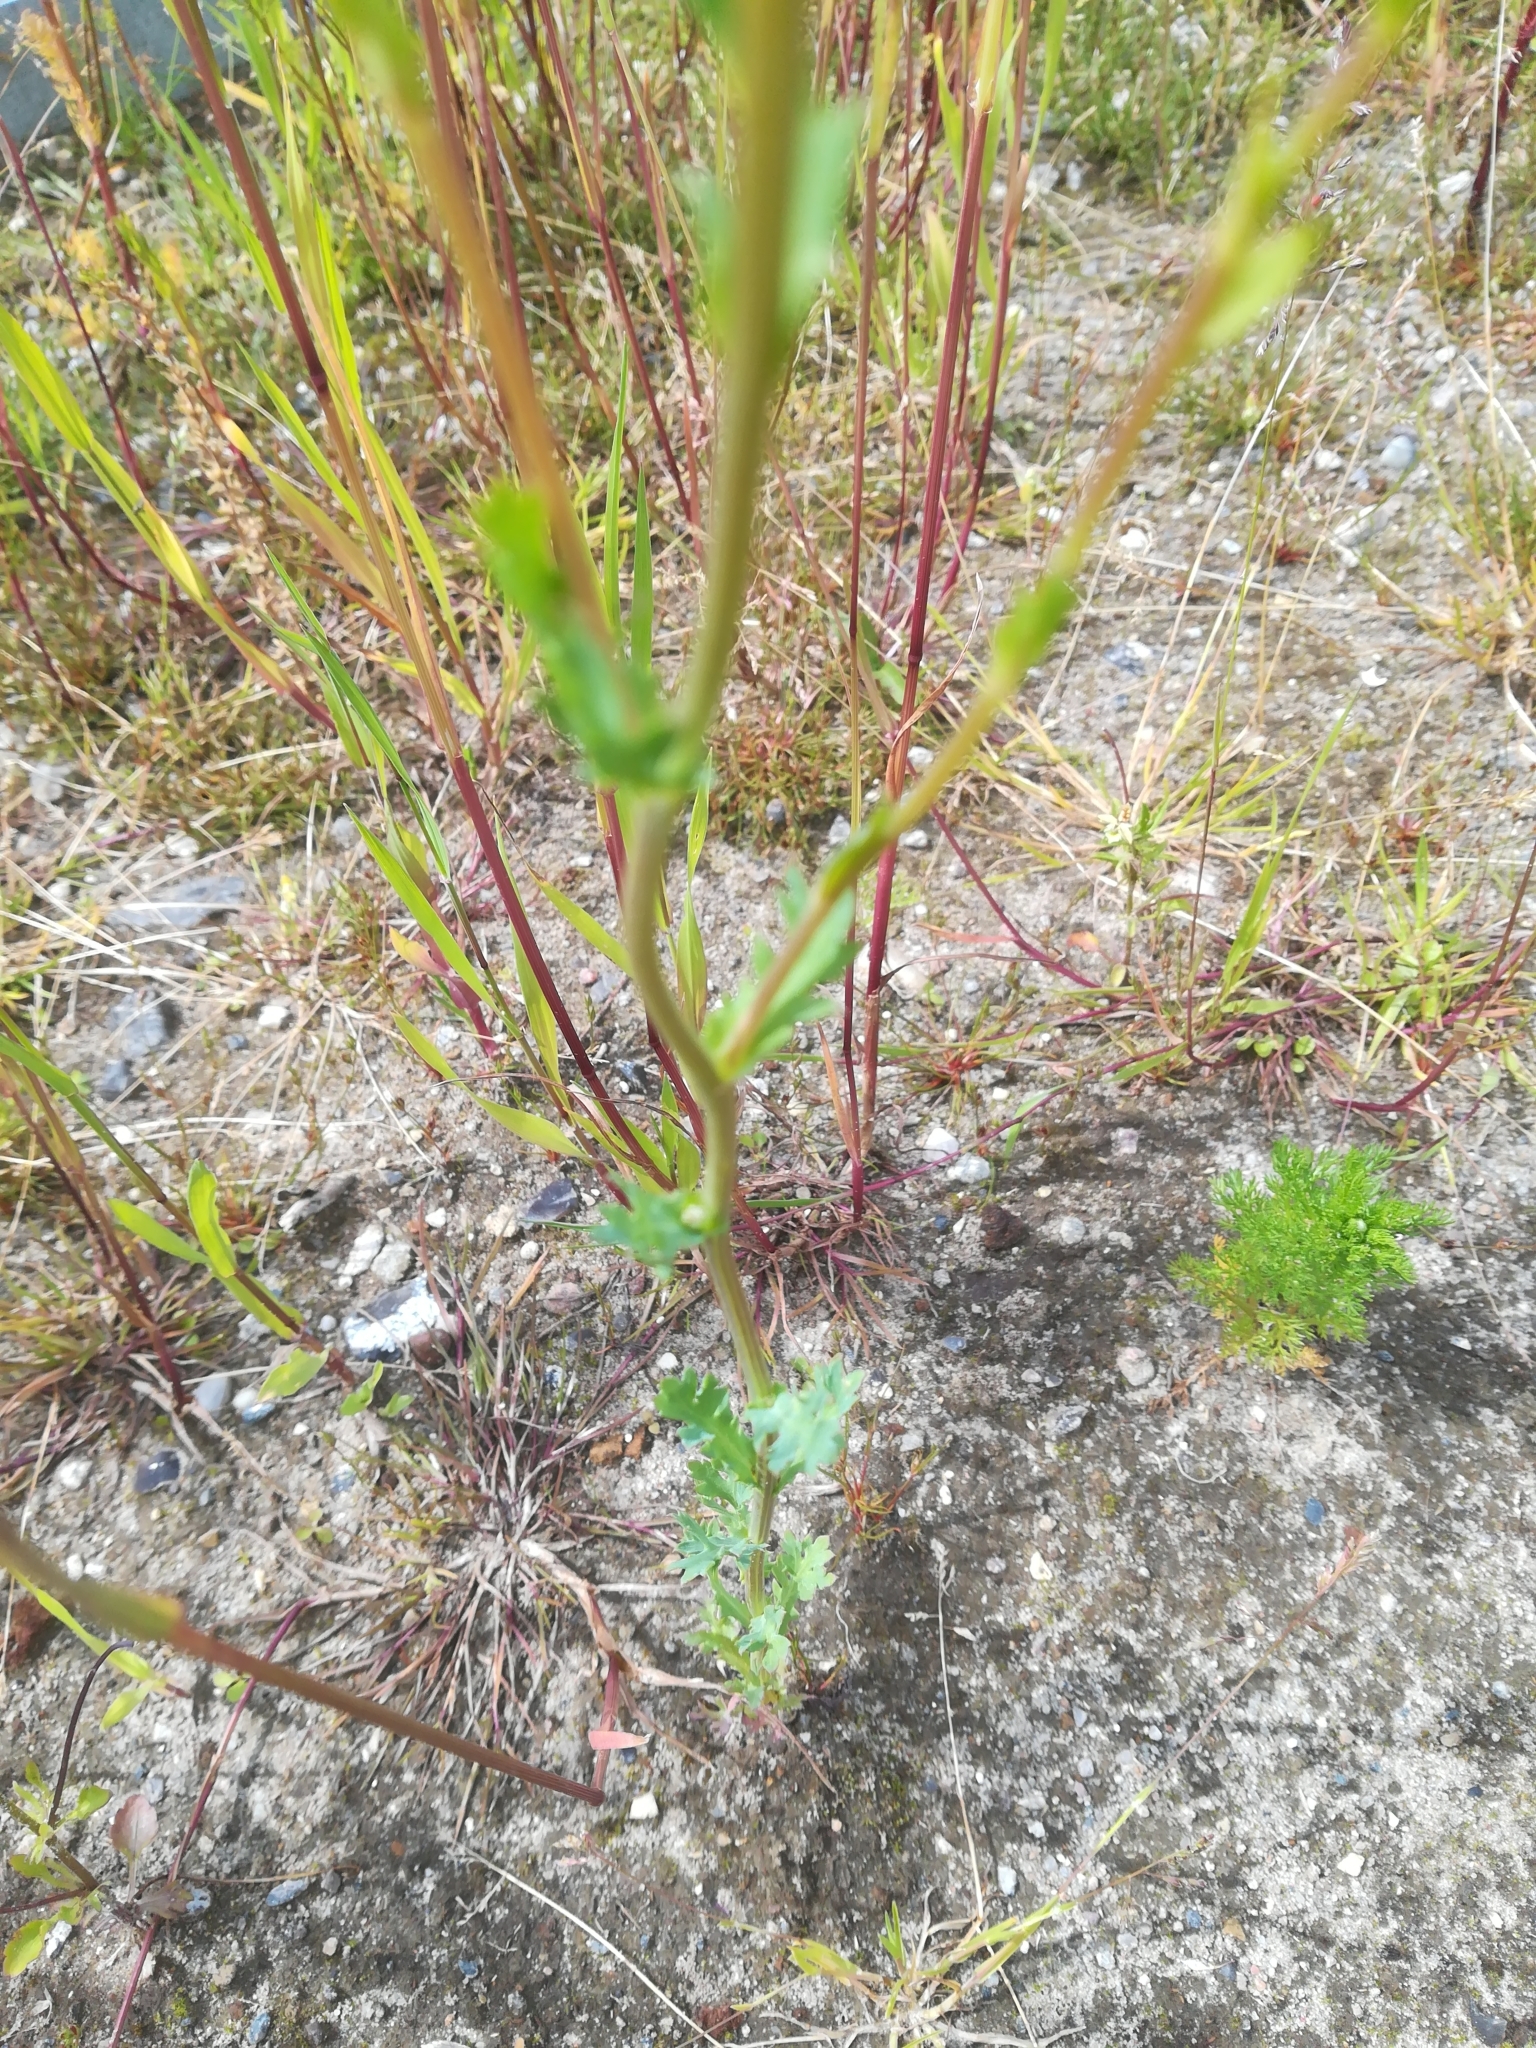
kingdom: Plantae
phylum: Tracheophyta
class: Magnoliopsida
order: Asterales
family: Asteraceae
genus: Glebionis
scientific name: Glebionis segetum
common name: Corndaisy
